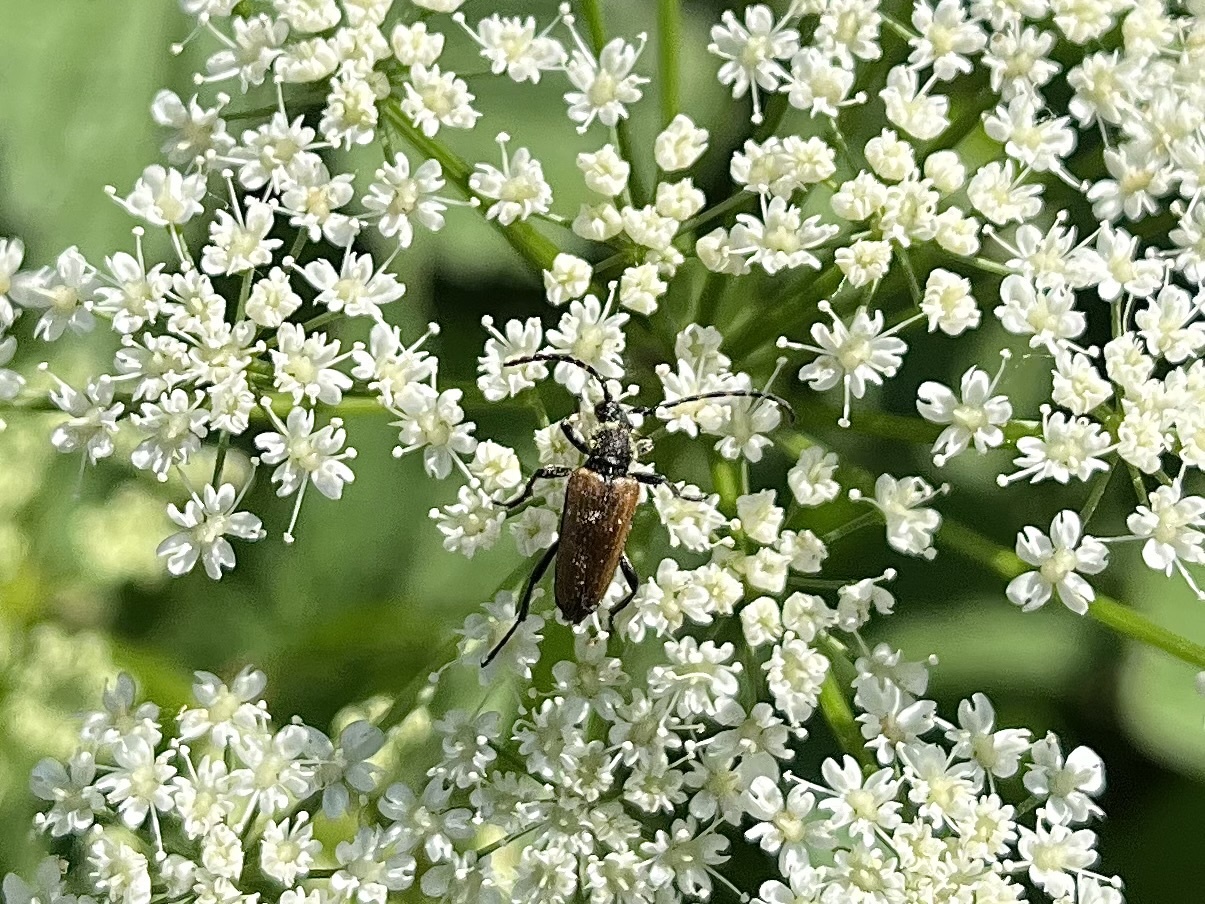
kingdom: Animalia
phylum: Arthropoda
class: Insecta
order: Coleoptera
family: Cerambycidae
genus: Paracorymbia
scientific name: Paracorymbia maculicornis
